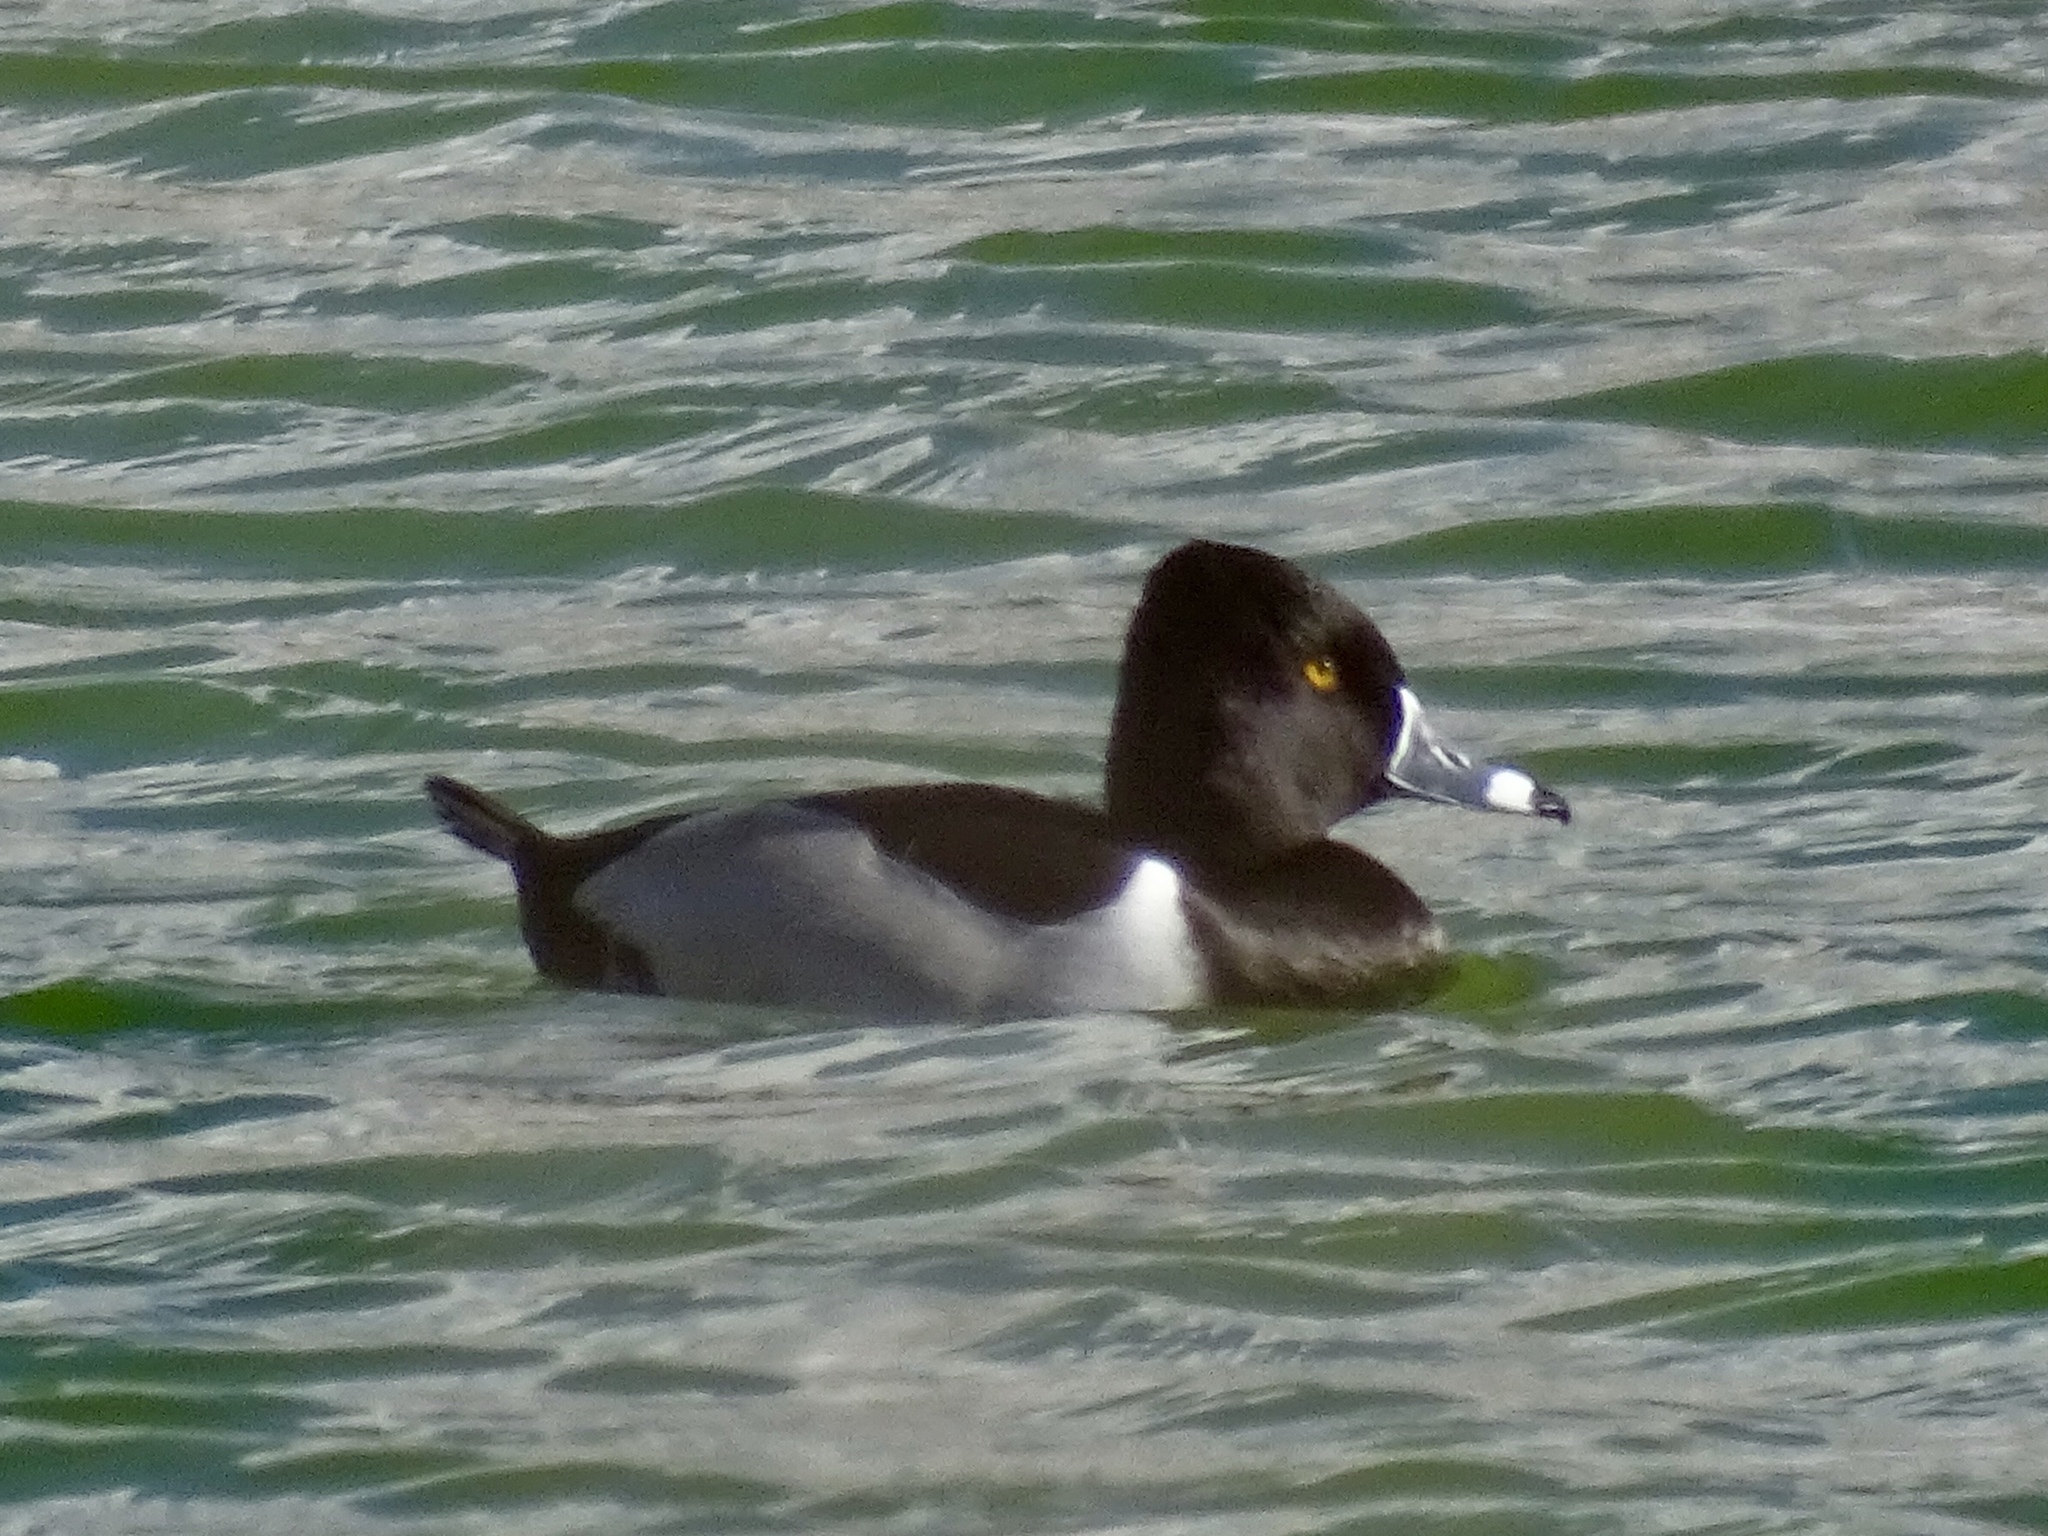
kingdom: Animalia
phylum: Chordata
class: Aves
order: Anseriformes
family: Anatidae
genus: Aythya
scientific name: Aythya collaris
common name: Ring-necked duck
